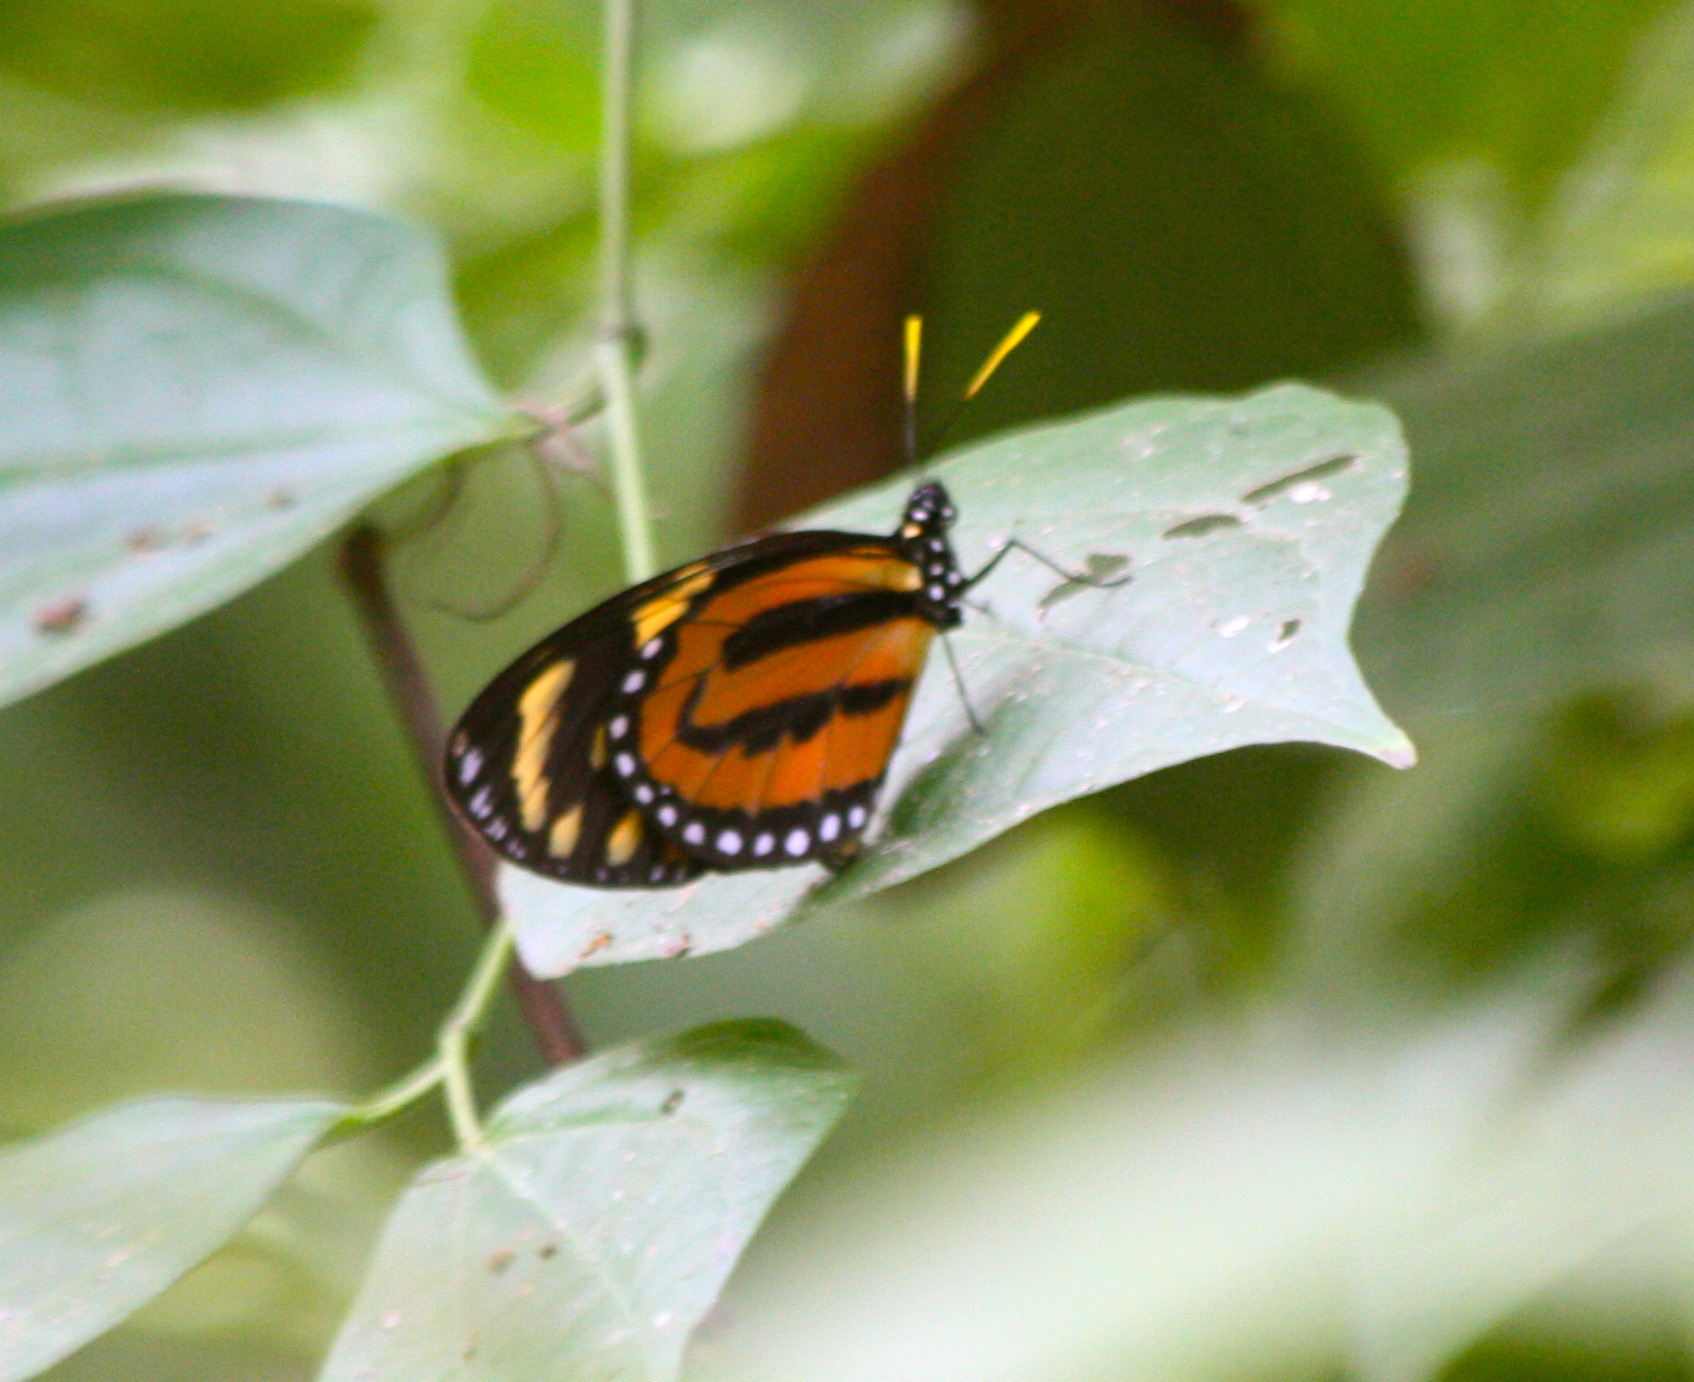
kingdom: Animalia
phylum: Arthropoda
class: Insecta
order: Lepidoptera
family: Nymphalidae
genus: Lycorea
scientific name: Lycorea cleobaea
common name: Tiger mimic-queen
